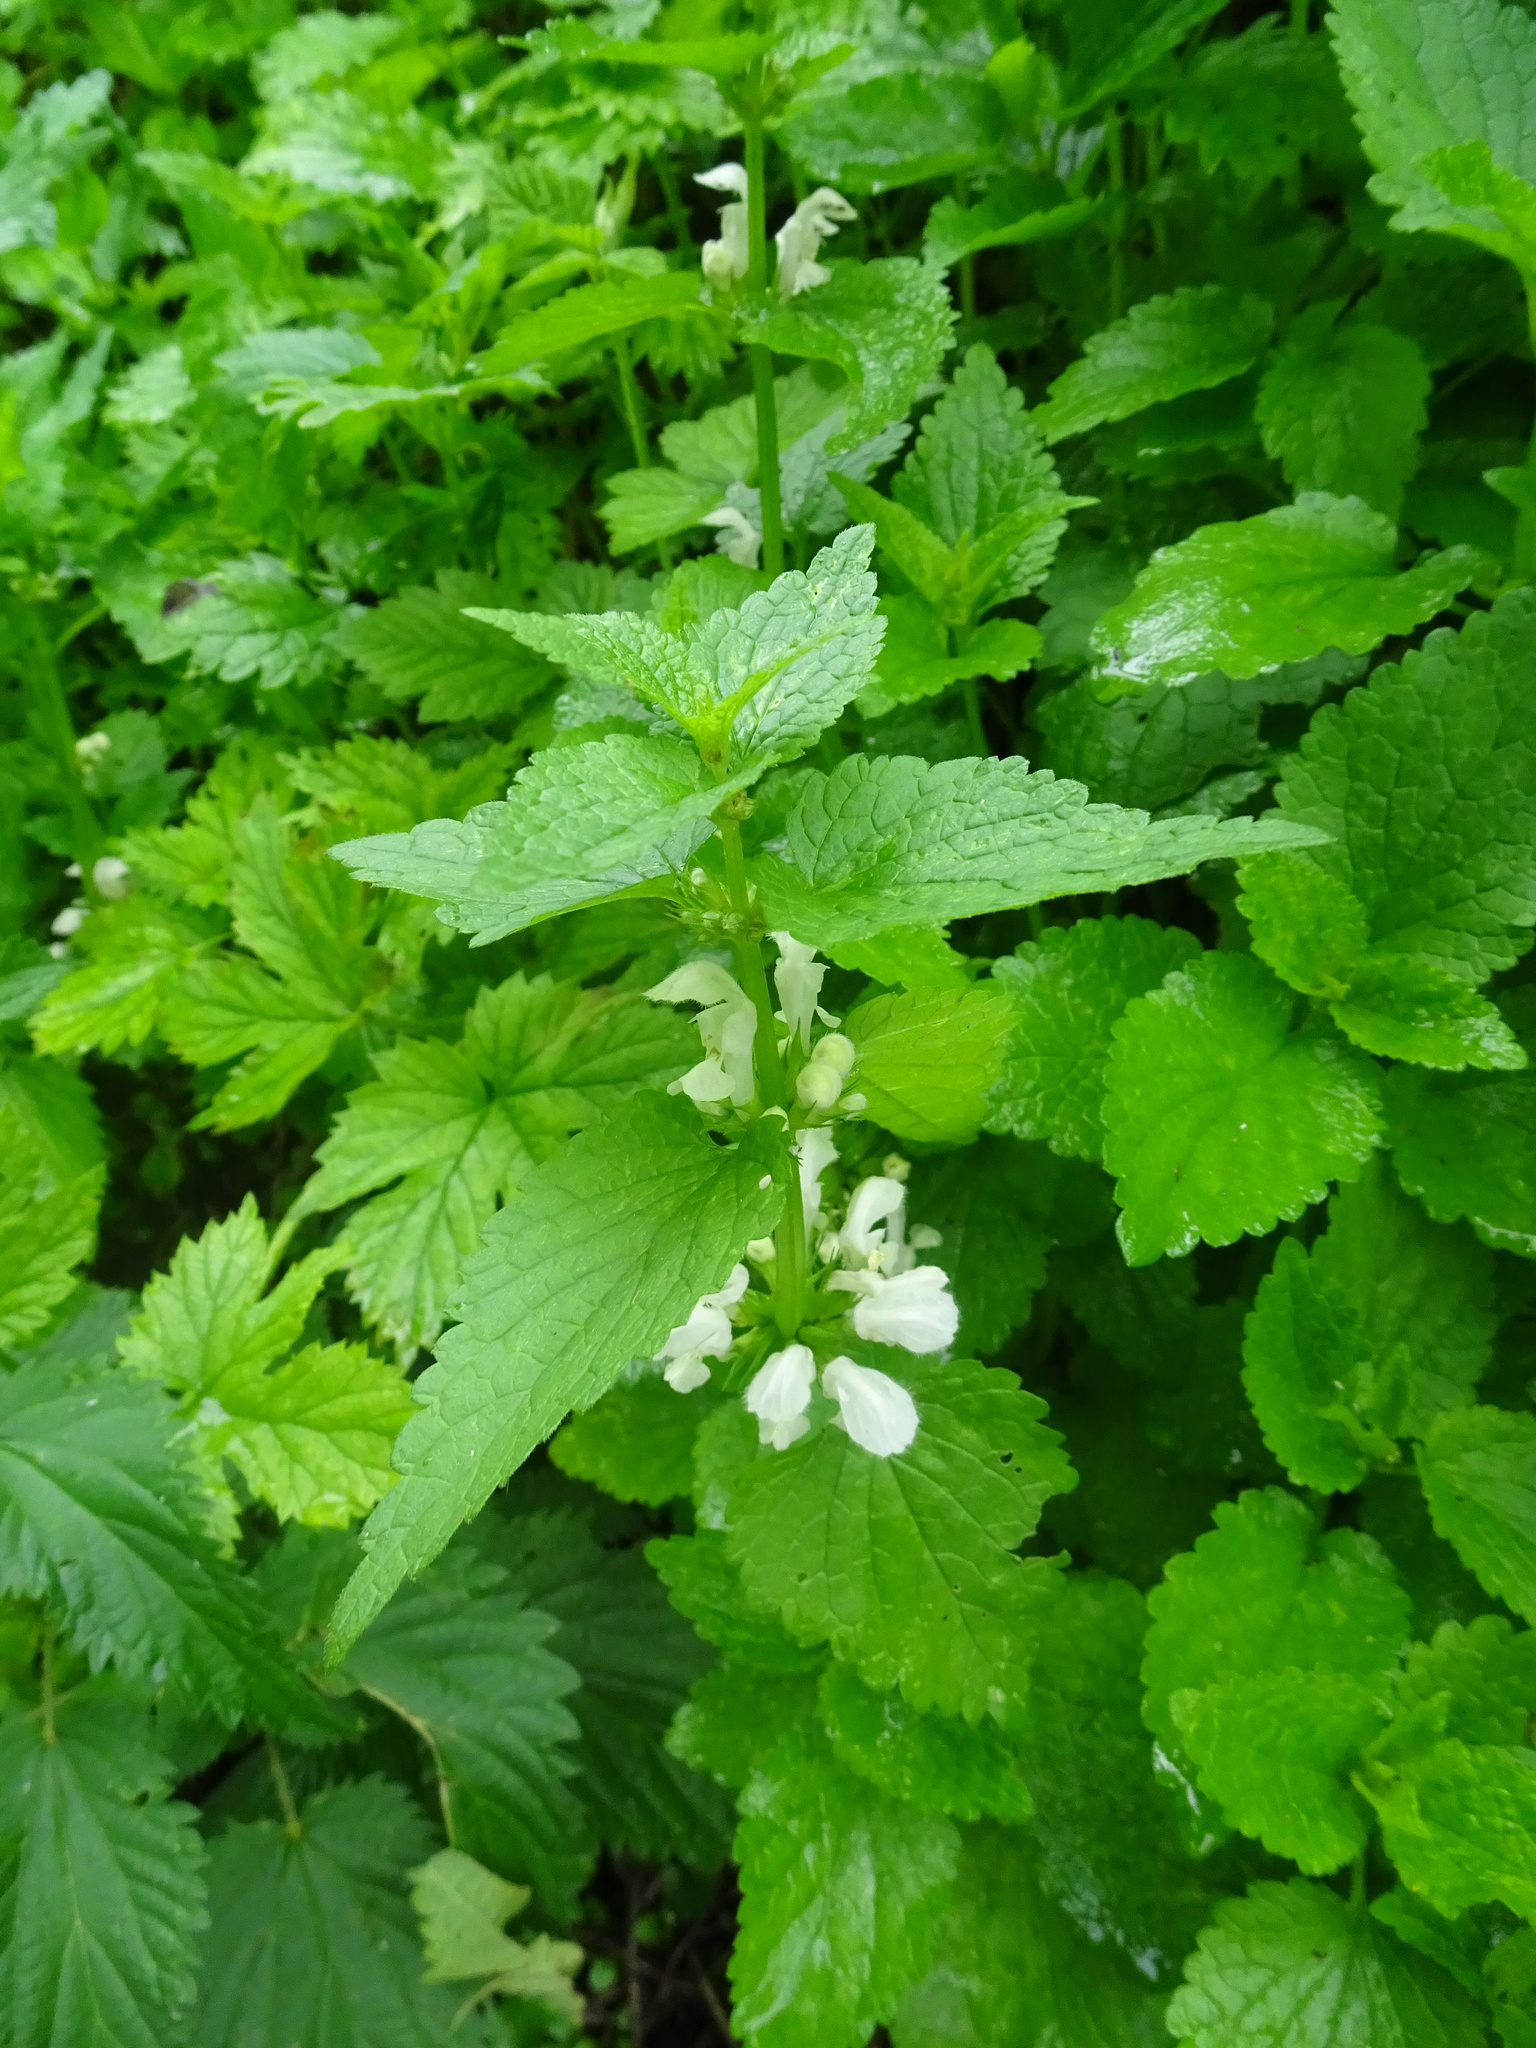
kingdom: Plantae
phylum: Tracheophyta
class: Magnoliopsida
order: Lamiales
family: Lamiaceae
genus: Lamium
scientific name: Lamium album
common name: White dead-nettle
